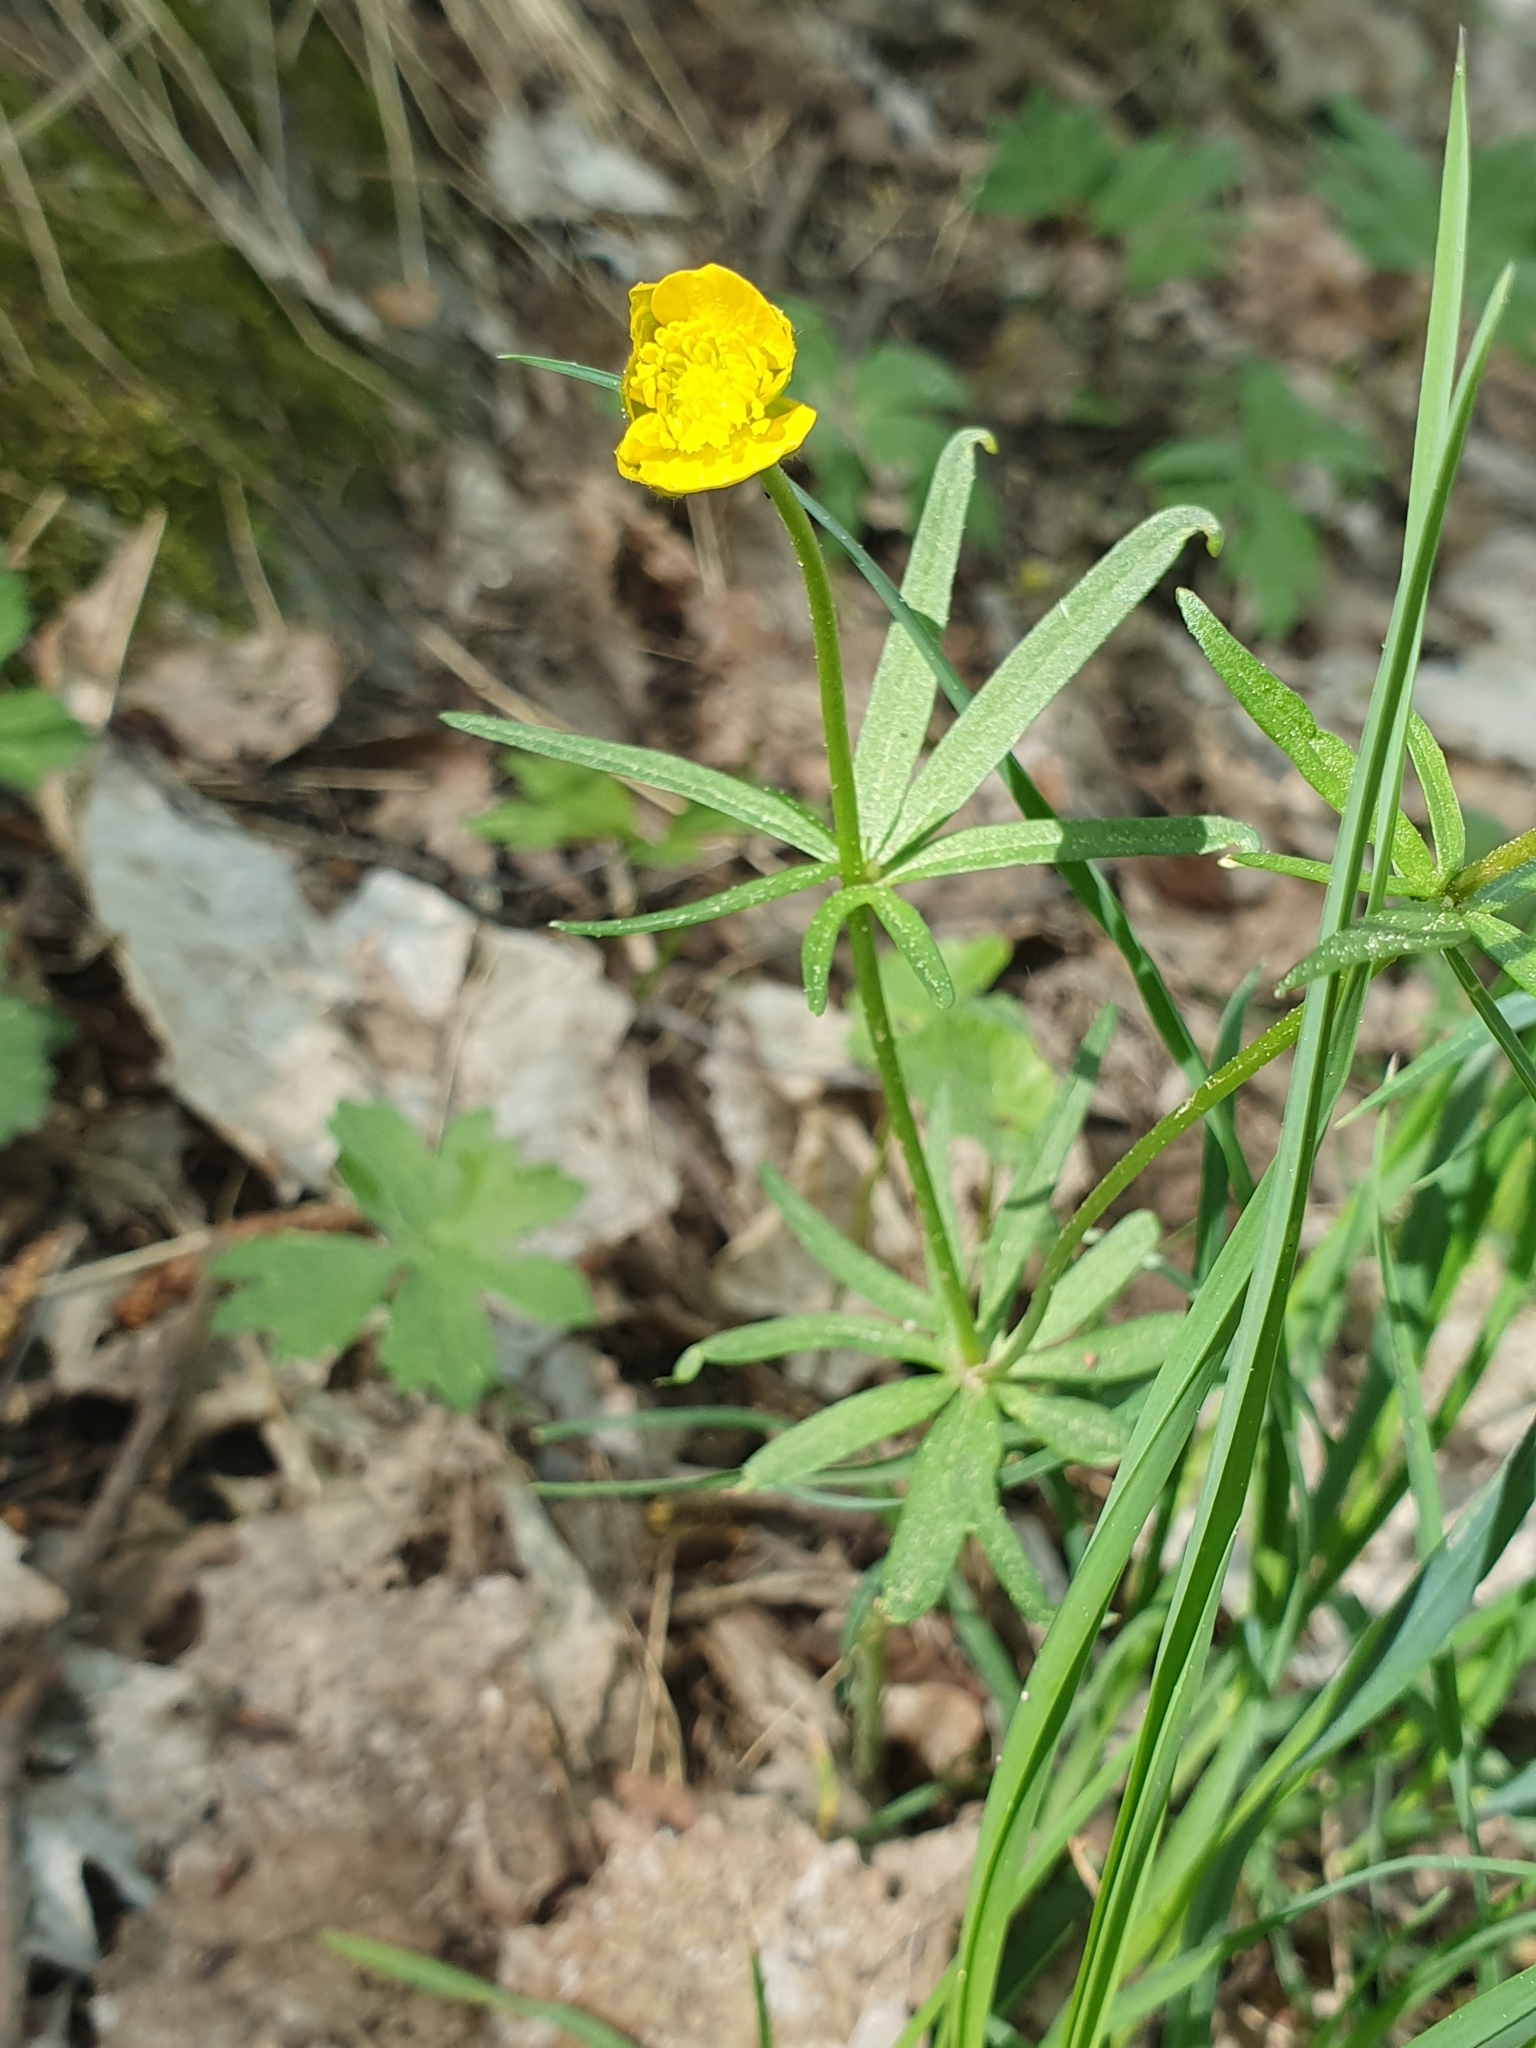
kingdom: Plantae
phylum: Tracheophyta
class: Magnoliopsida
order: Ranunculales
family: Ranunculaceae
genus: Ranunculus
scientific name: Ranunculus auricomus
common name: Goldilocks buttercup
